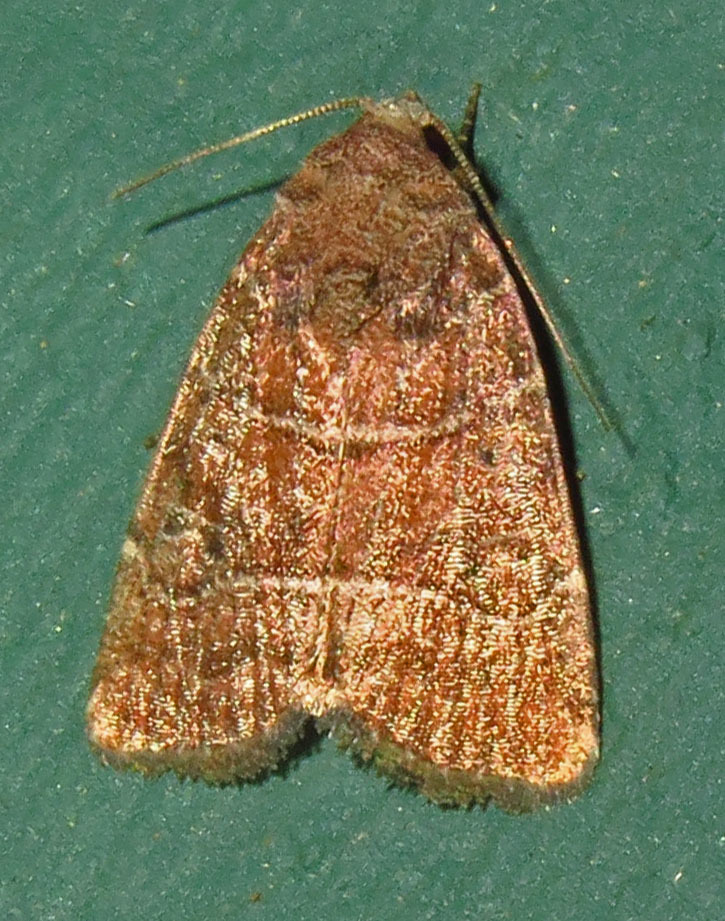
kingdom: Animalia
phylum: Arthropoda
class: Insecta
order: Lepidoptera
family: Noctuidae
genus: Elaphria
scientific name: Elaphria grata
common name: Grateful midget moth
